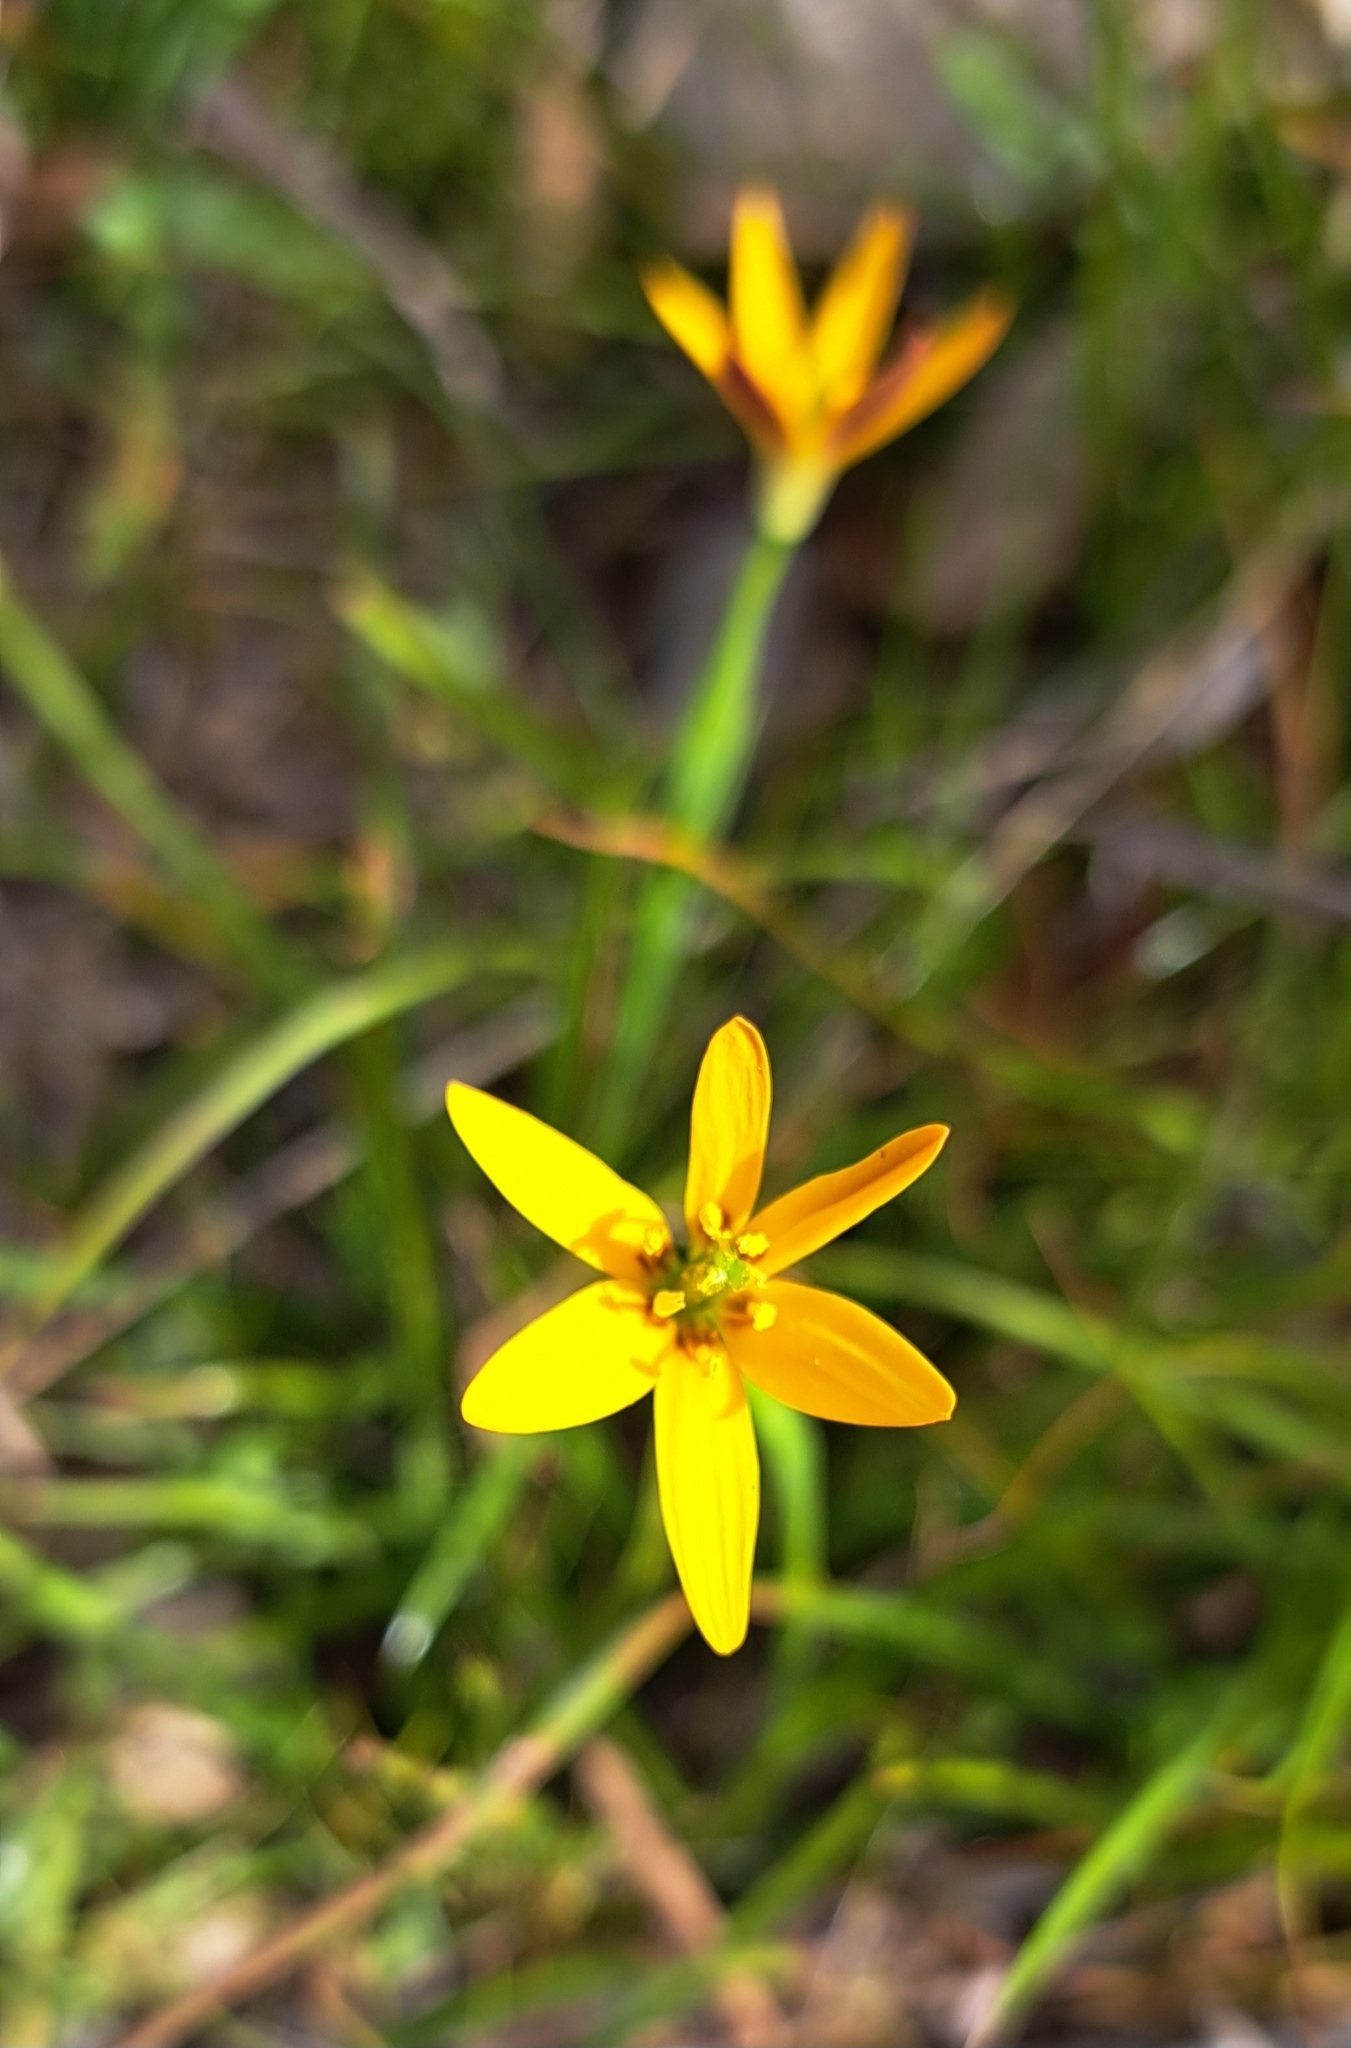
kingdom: Plantae
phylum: Tracheophyta
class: Liliopsida
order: Liliales
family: Colchicaceae
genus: Baeometra
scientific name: Baeometra uniflora
